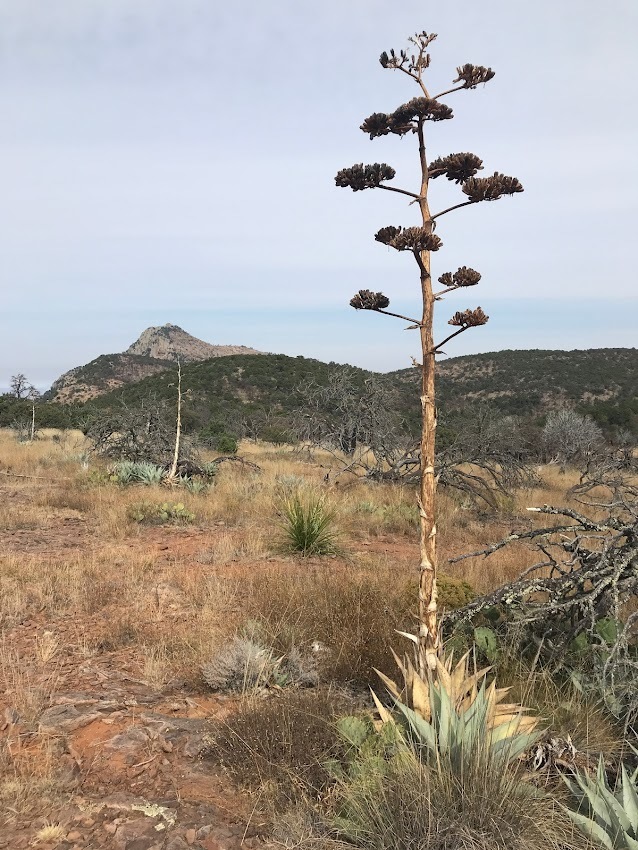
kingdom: Plantae
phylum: Tracheophyta
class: Liliopsida
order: Asparagales
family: Asparagaceae
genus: Agave
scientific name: Agave havardiana
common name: Havard agave
